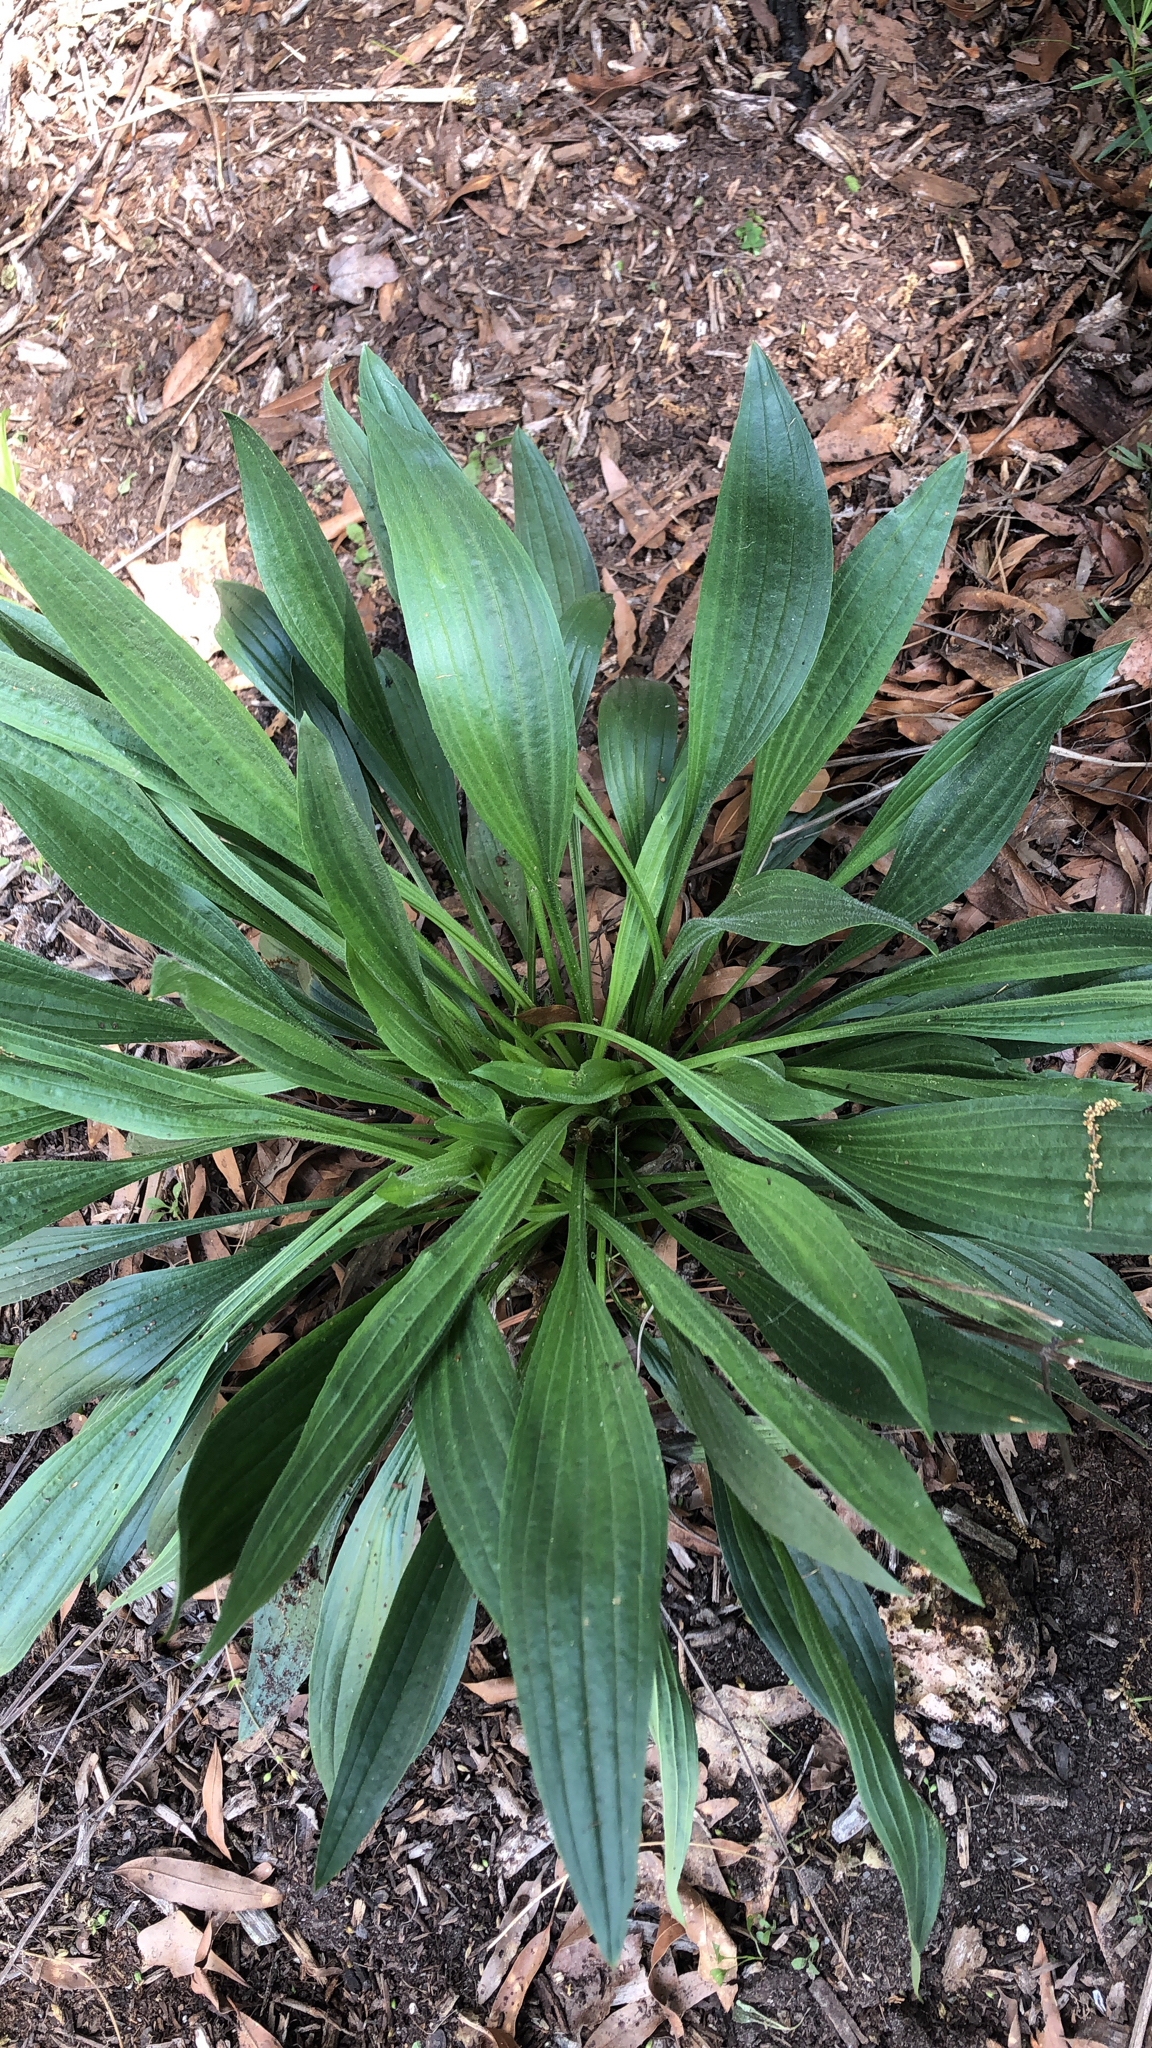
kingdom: Plantae
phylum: Tracheophyta
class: Magnoliopsida
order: Lamiales
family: Plantaginaceae
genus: Plantago
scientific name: Plantago lanceolata
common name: Ribwort plantain
